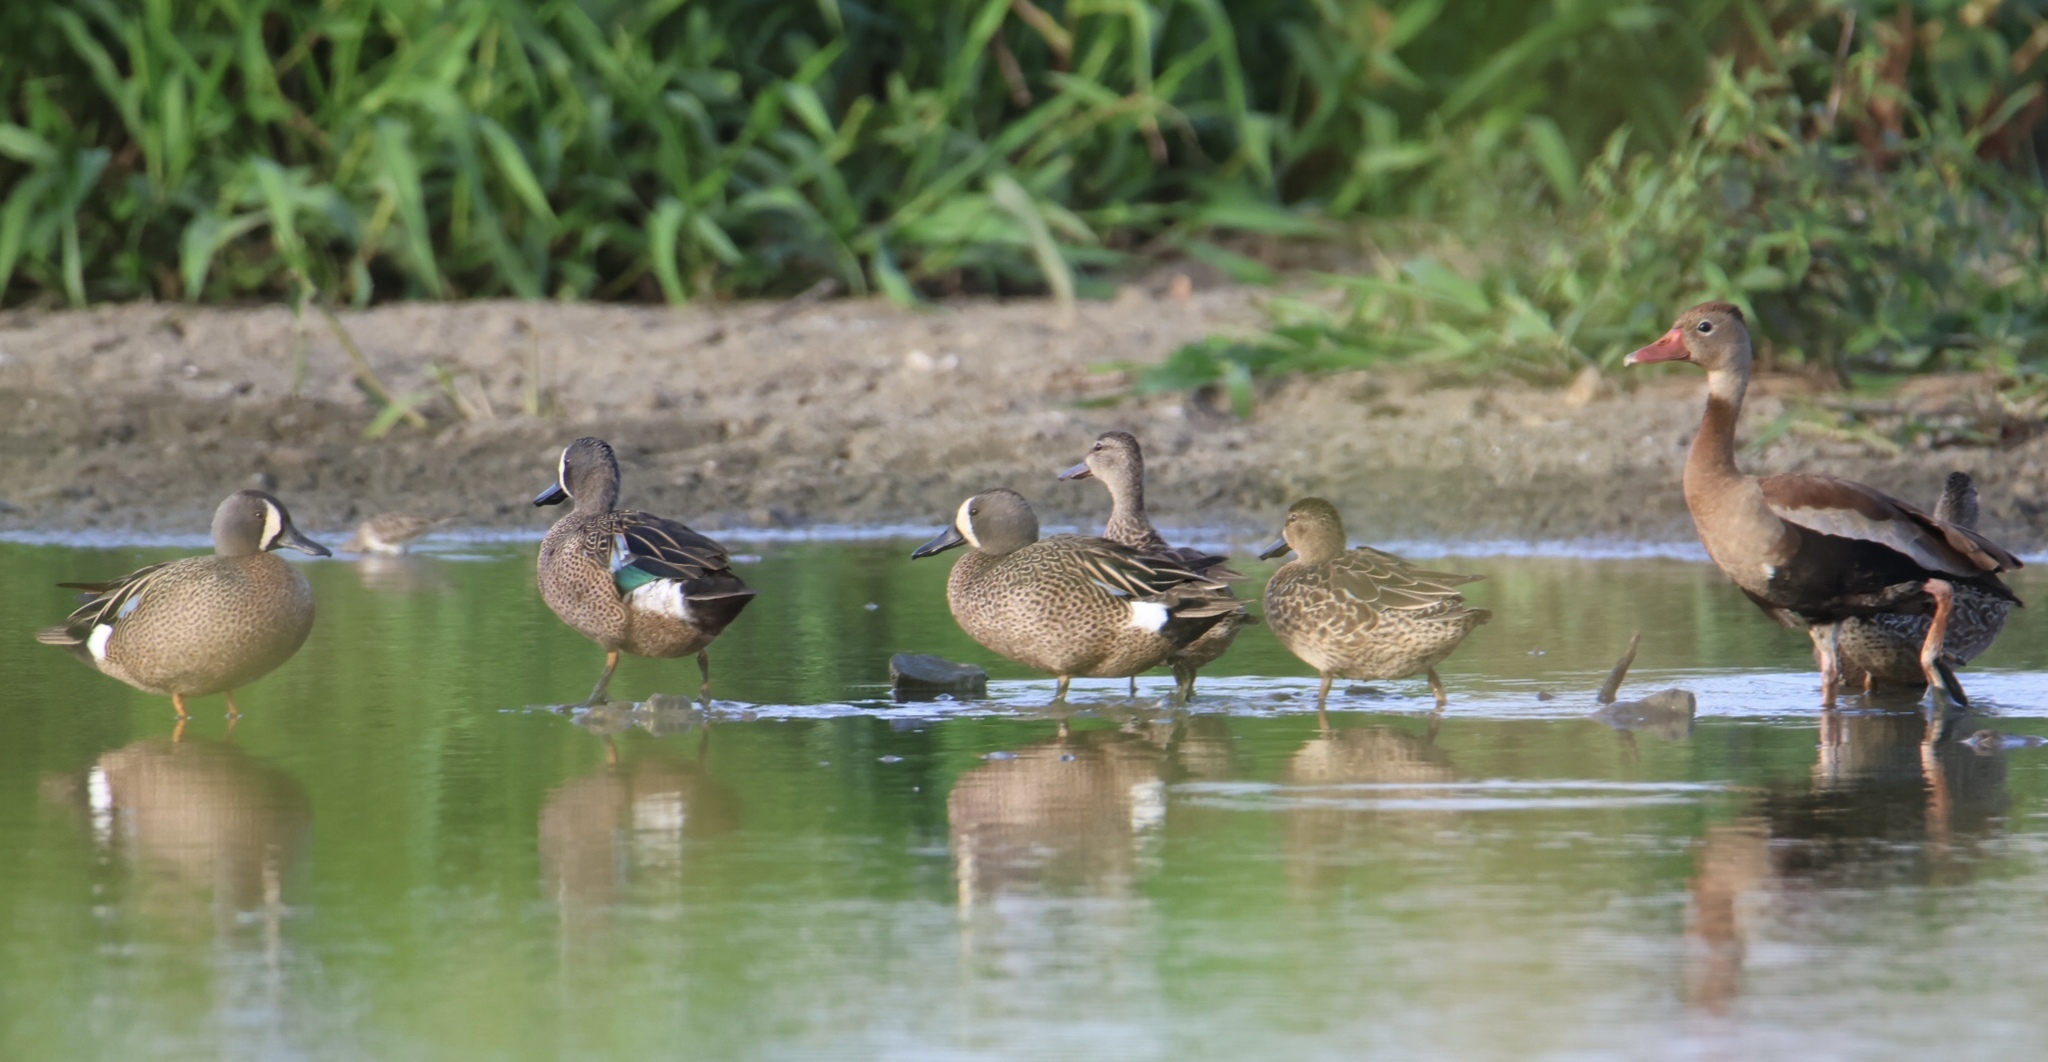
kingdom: Animalia
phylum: Chordata
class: Aves
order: Anseriformes
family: Anatidae
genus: Spatula
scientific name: Spatula discors
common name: Blue-winged teal
